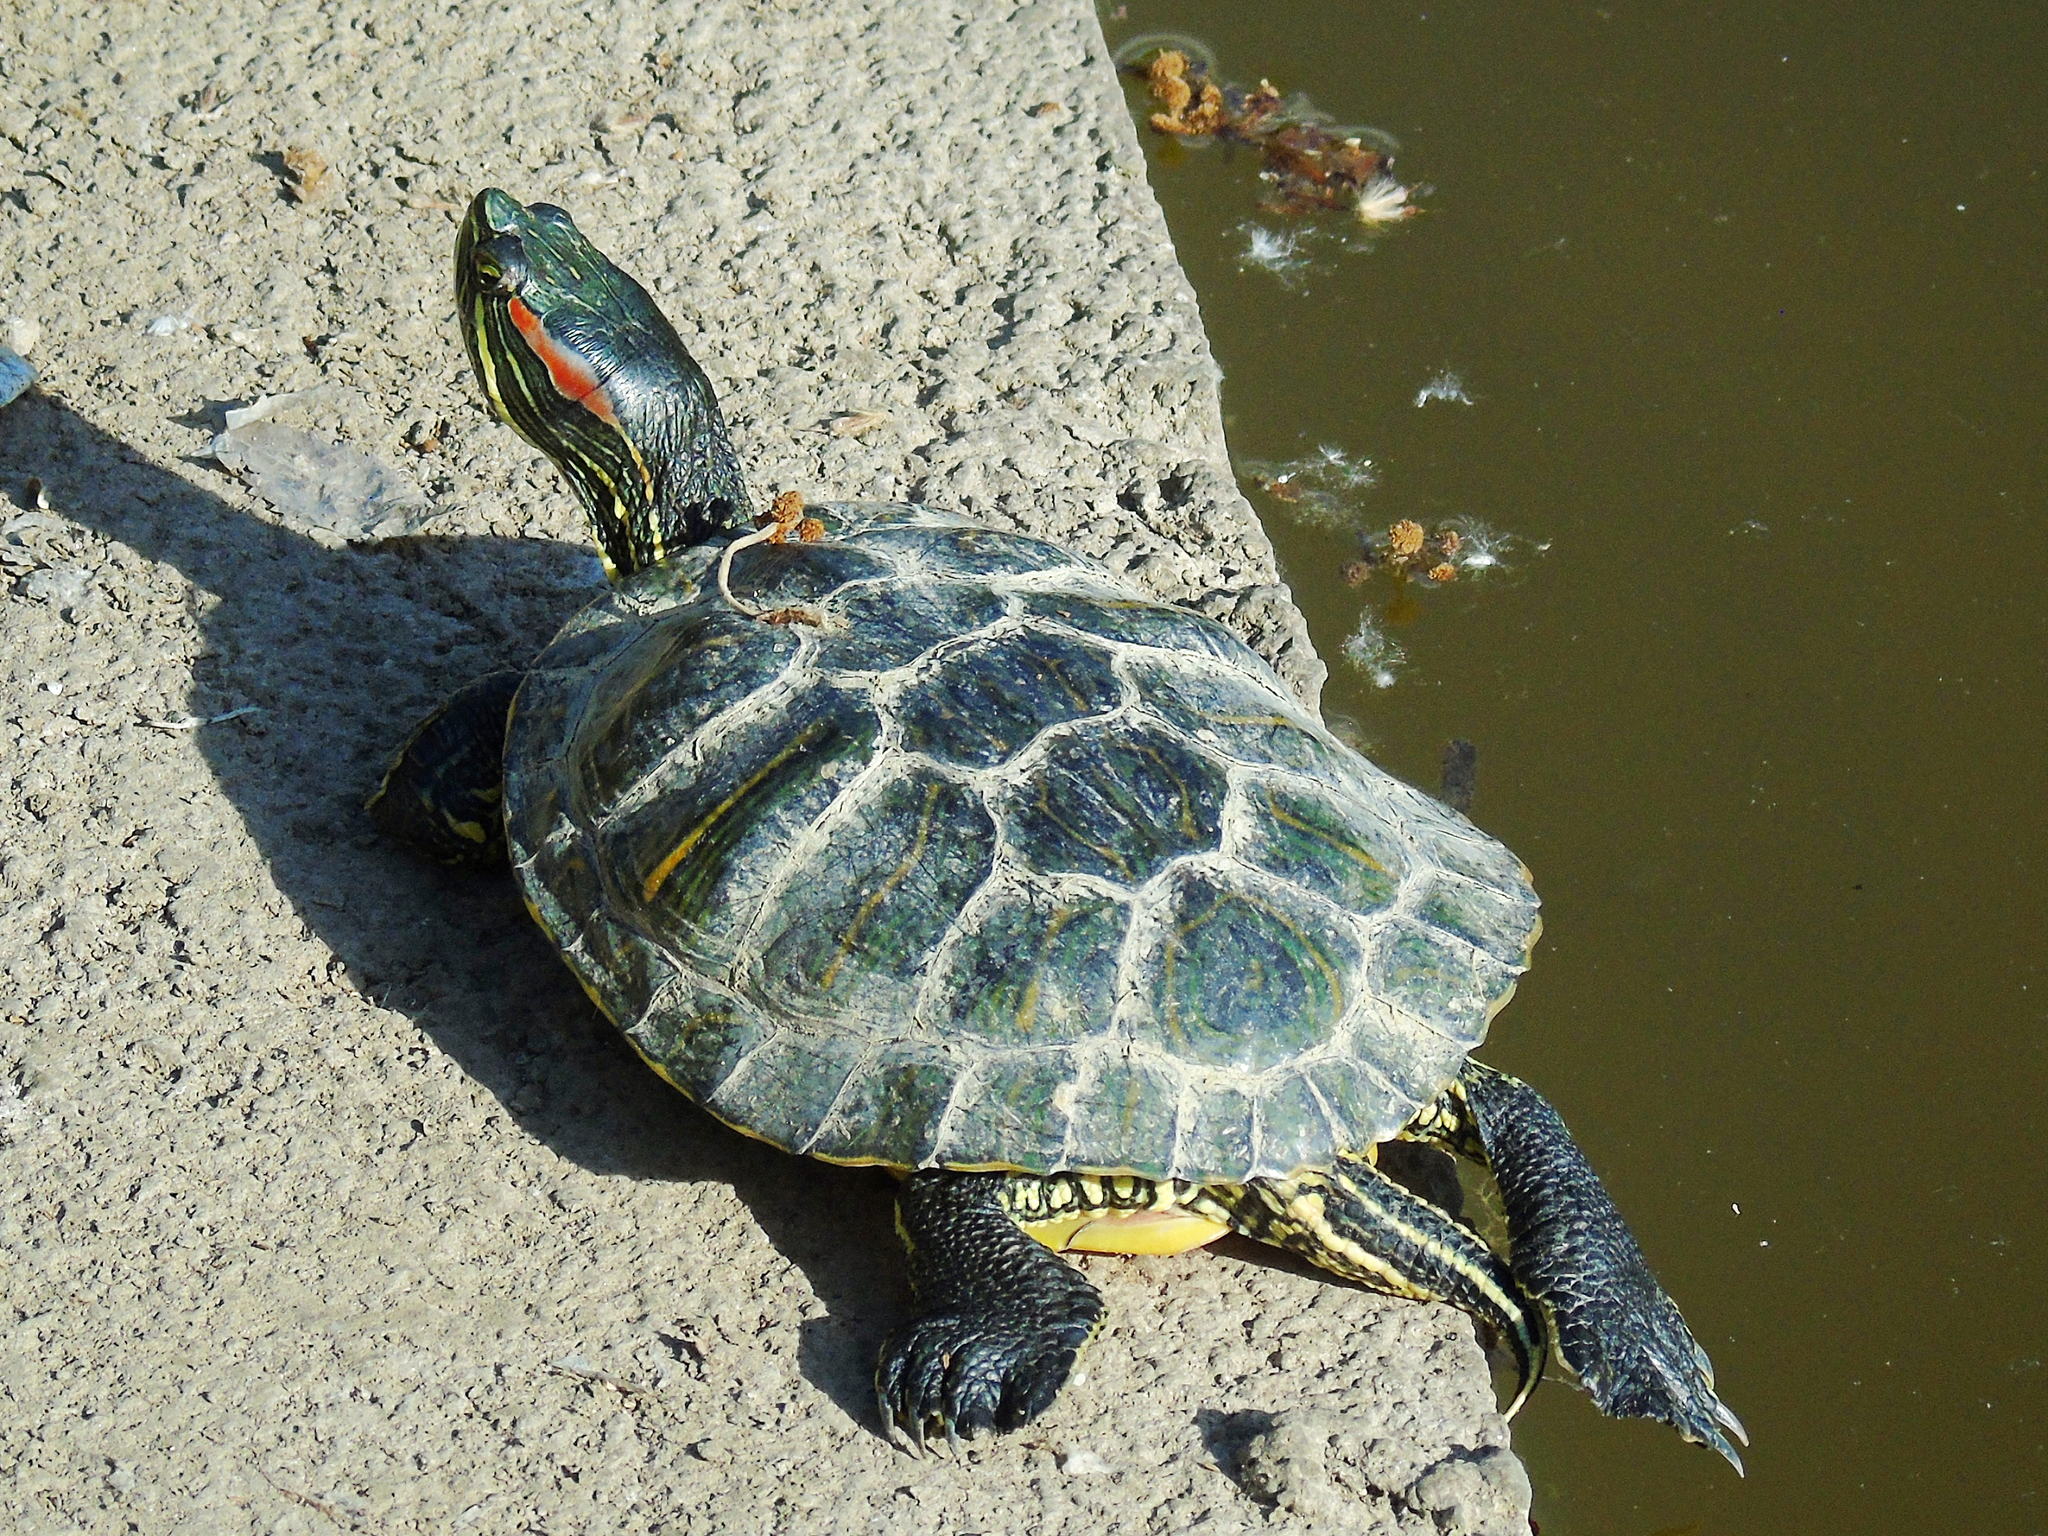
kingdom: Animalia
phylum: Chordata
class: Testudines
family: Emydidae
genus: Trachemys
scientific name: Trachemys scripta
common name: Slider
